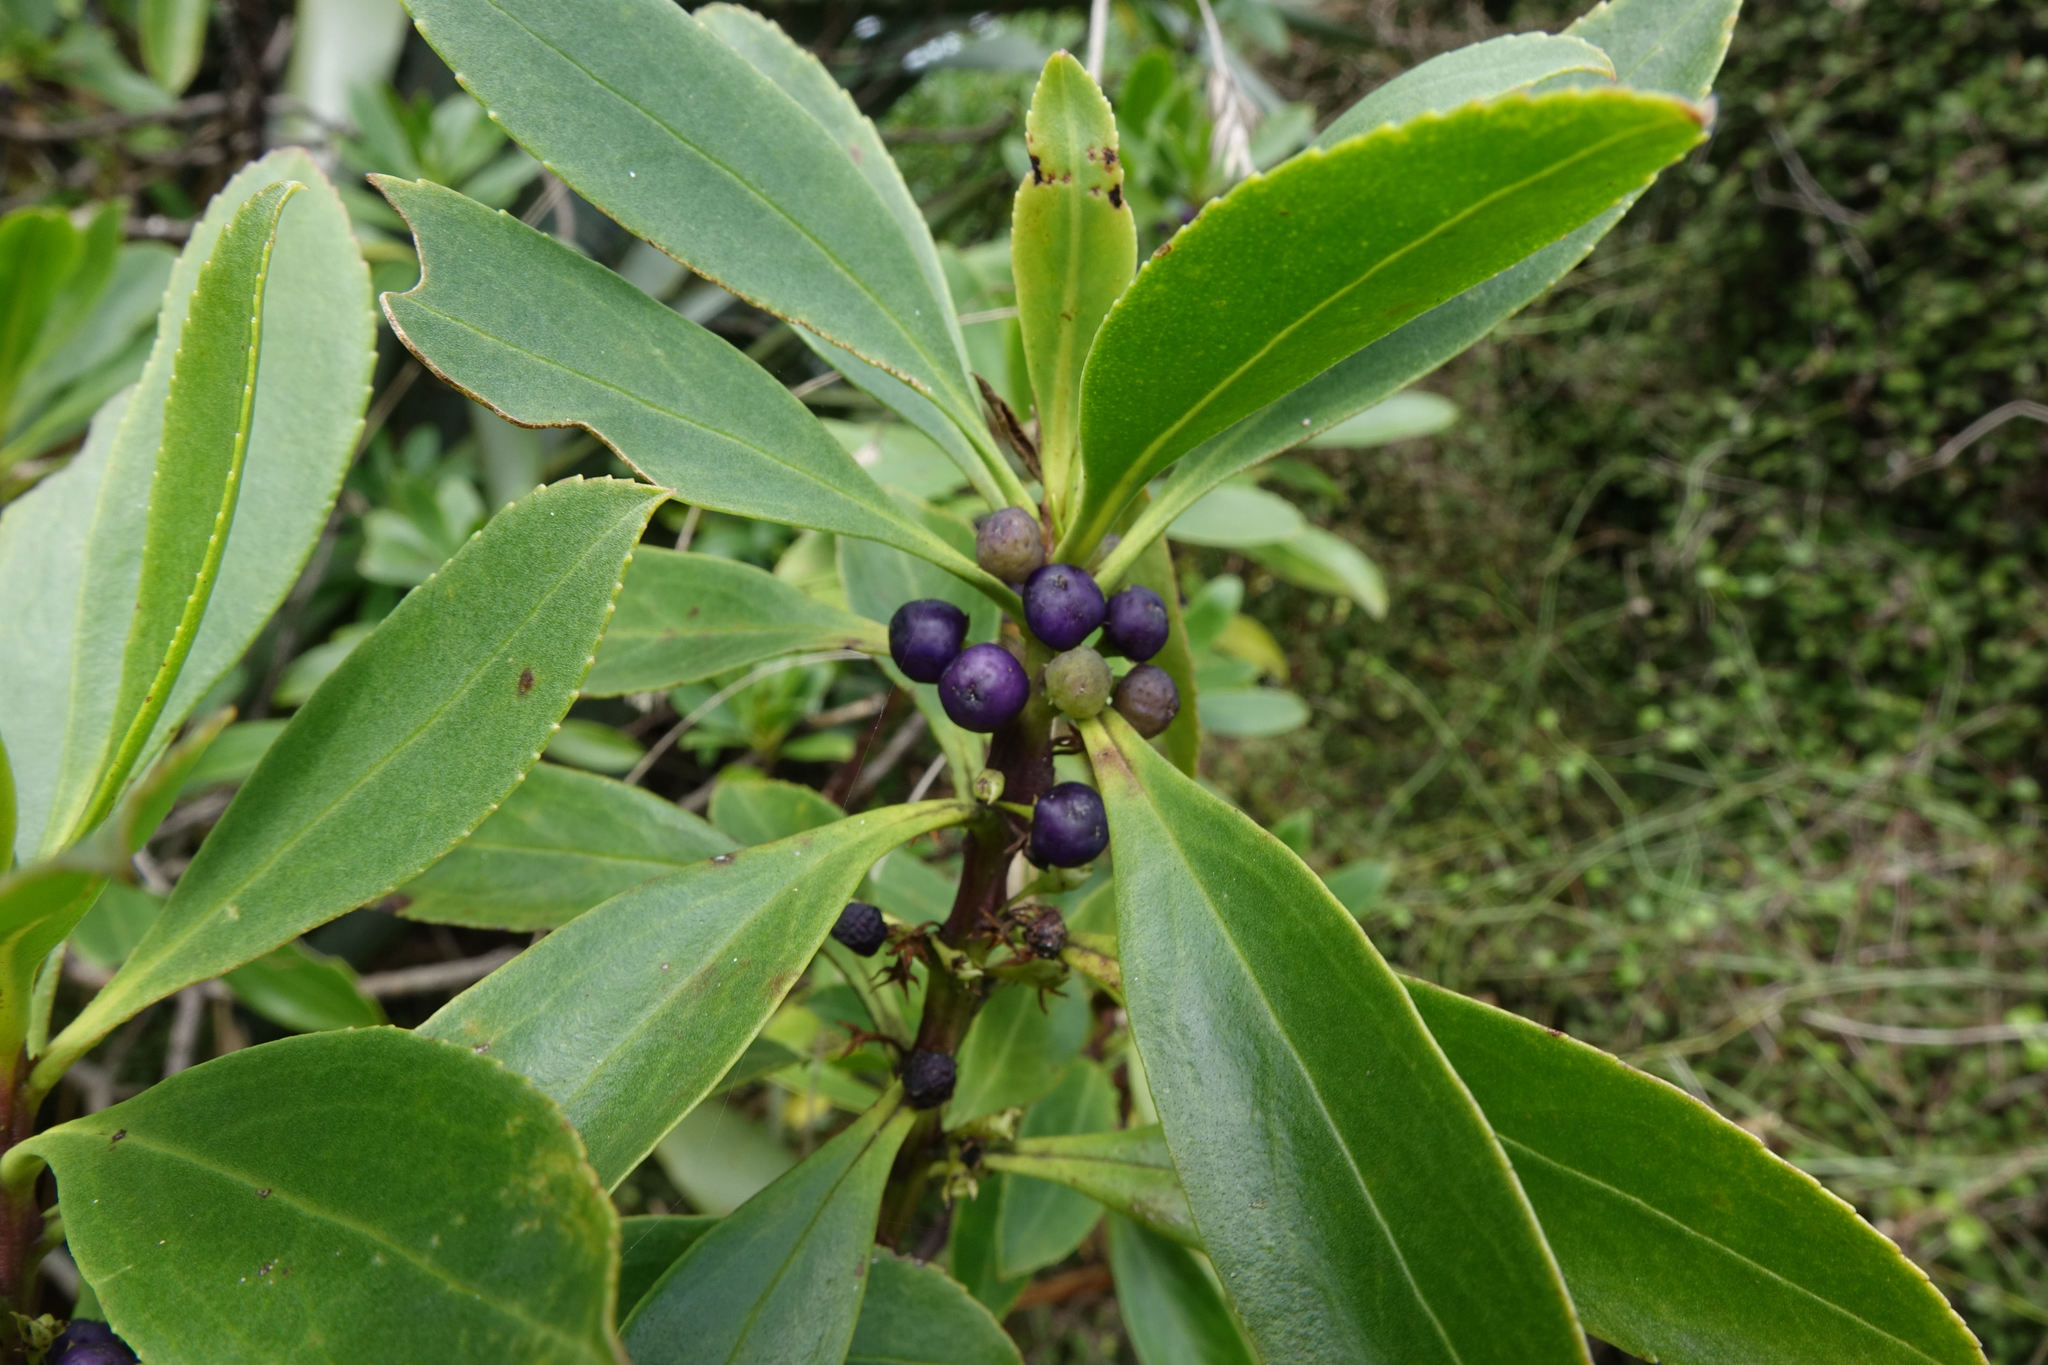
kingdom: Plantae
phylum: Tracheophyta
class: Magnoliopsida
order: Lamiales
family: Scrophulariaceae
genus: Myoporum
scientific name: Myoporum insulare
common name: Common boobialla
